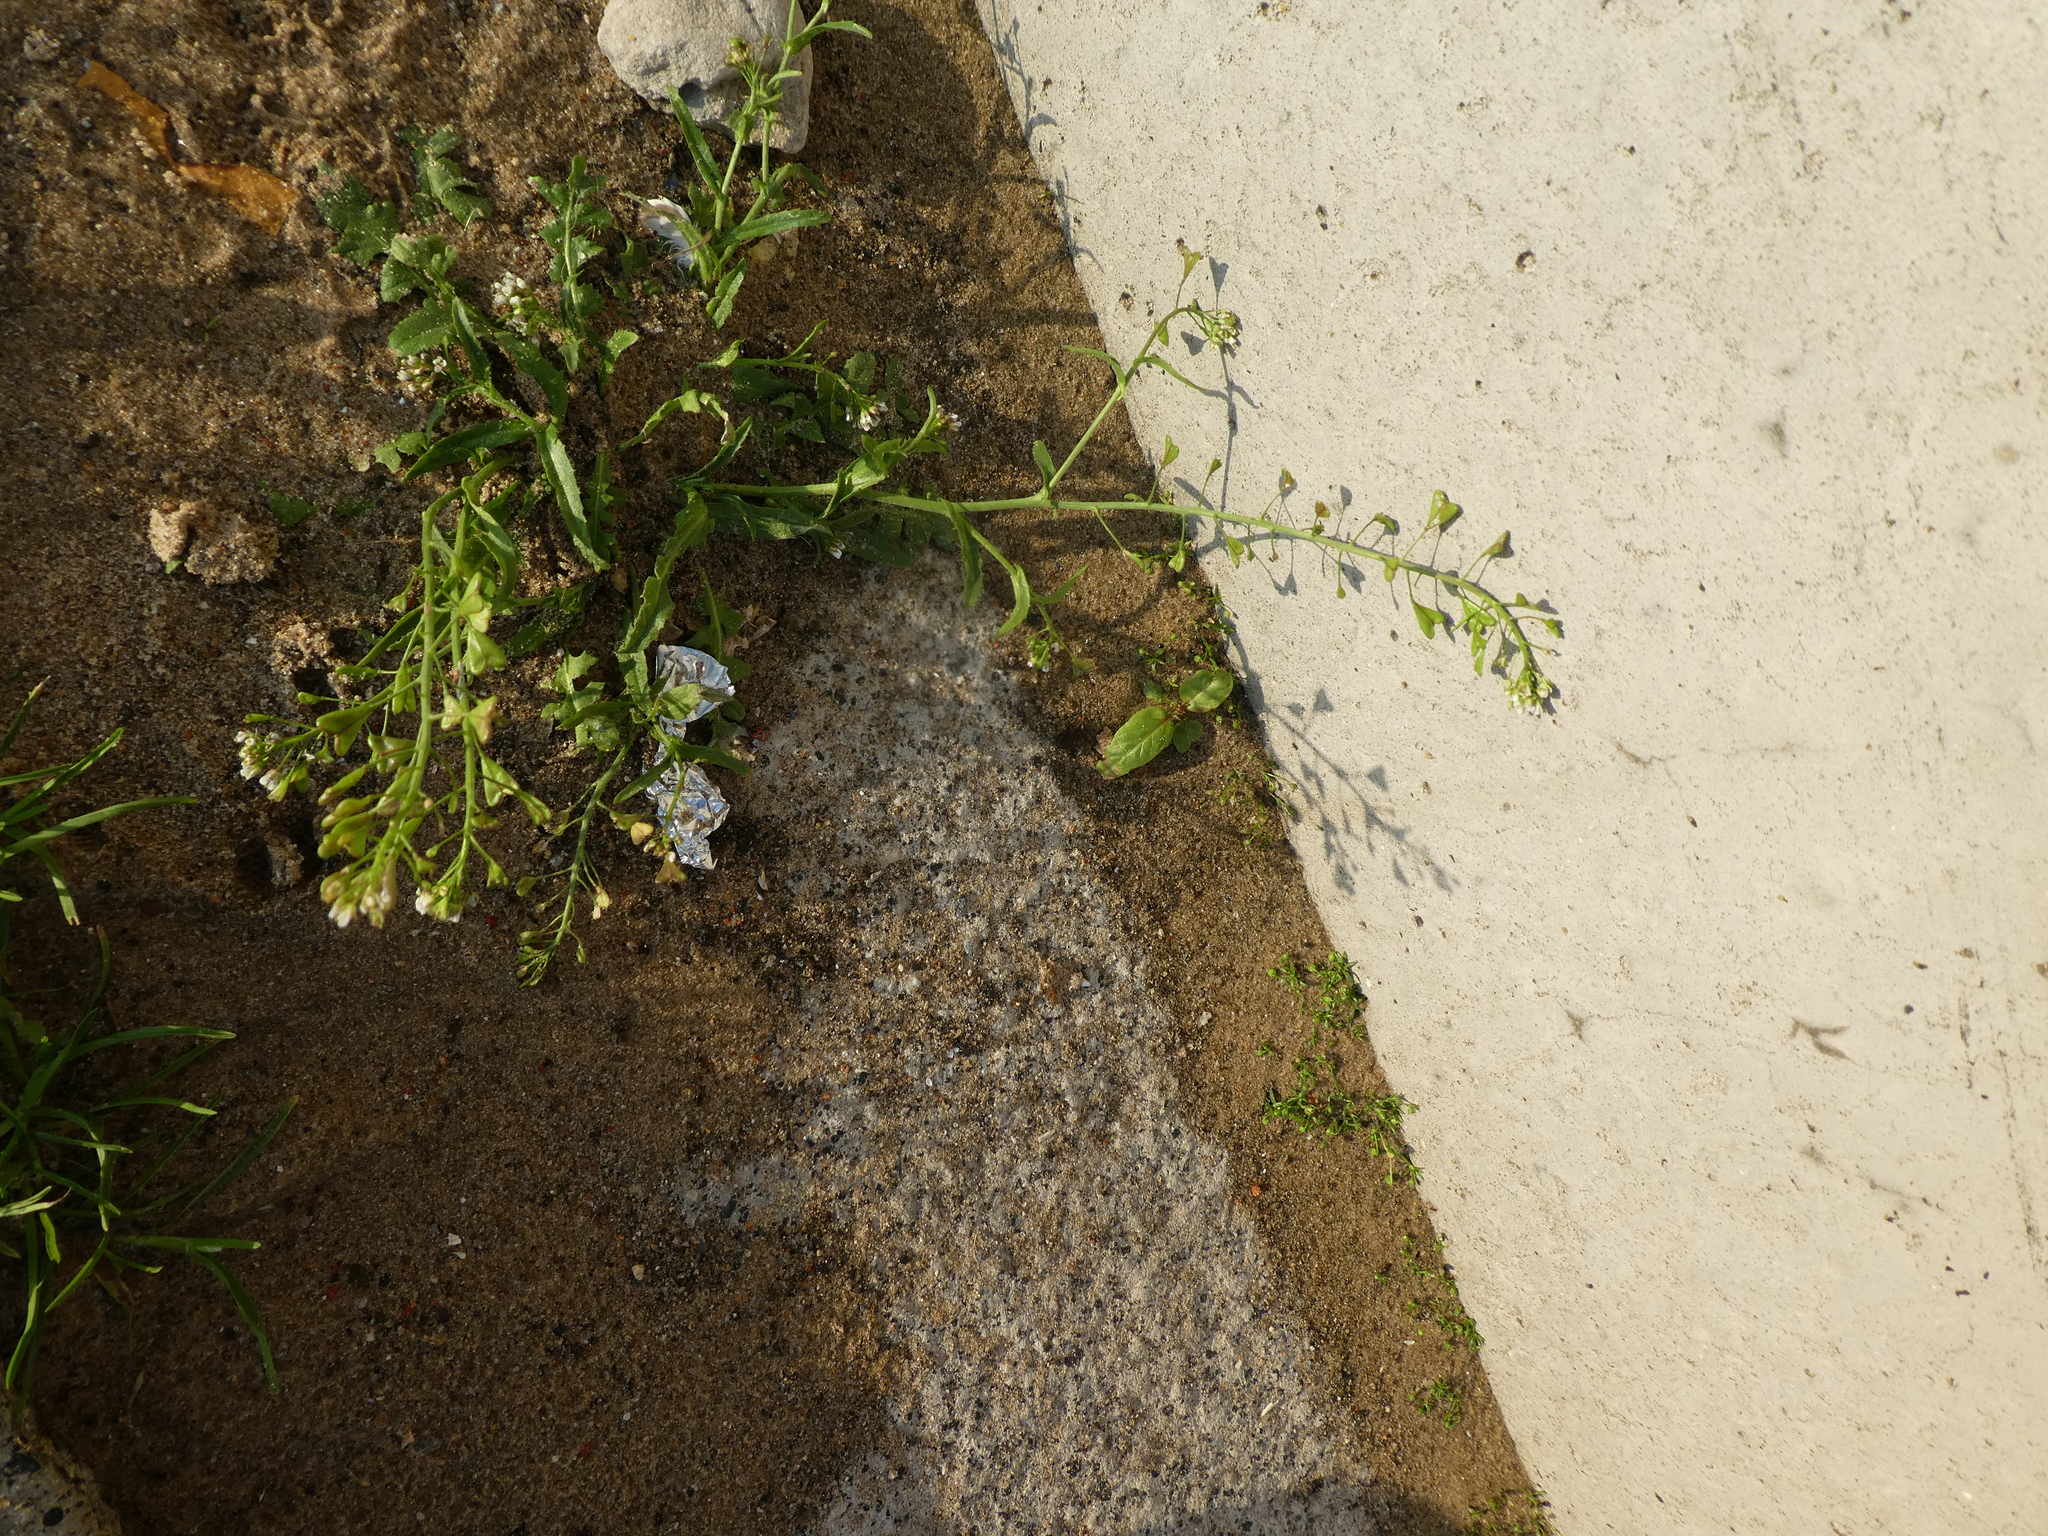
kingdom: Plantae
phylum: Tracheophyta
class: Magnoliopsida
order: Brassicales
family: Brassicaceae
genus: Capsella
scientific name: Capsella bursa-pastoris
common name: Shepherd's purse
